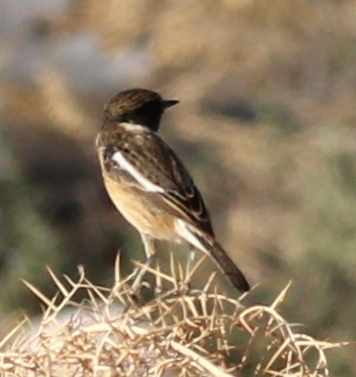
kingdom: Animalia
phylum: Chordata
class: Aves
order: Passeriformes
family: Muscicapidae
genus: Saxicola
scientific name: Saxicola rubicola
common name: European stonechat
